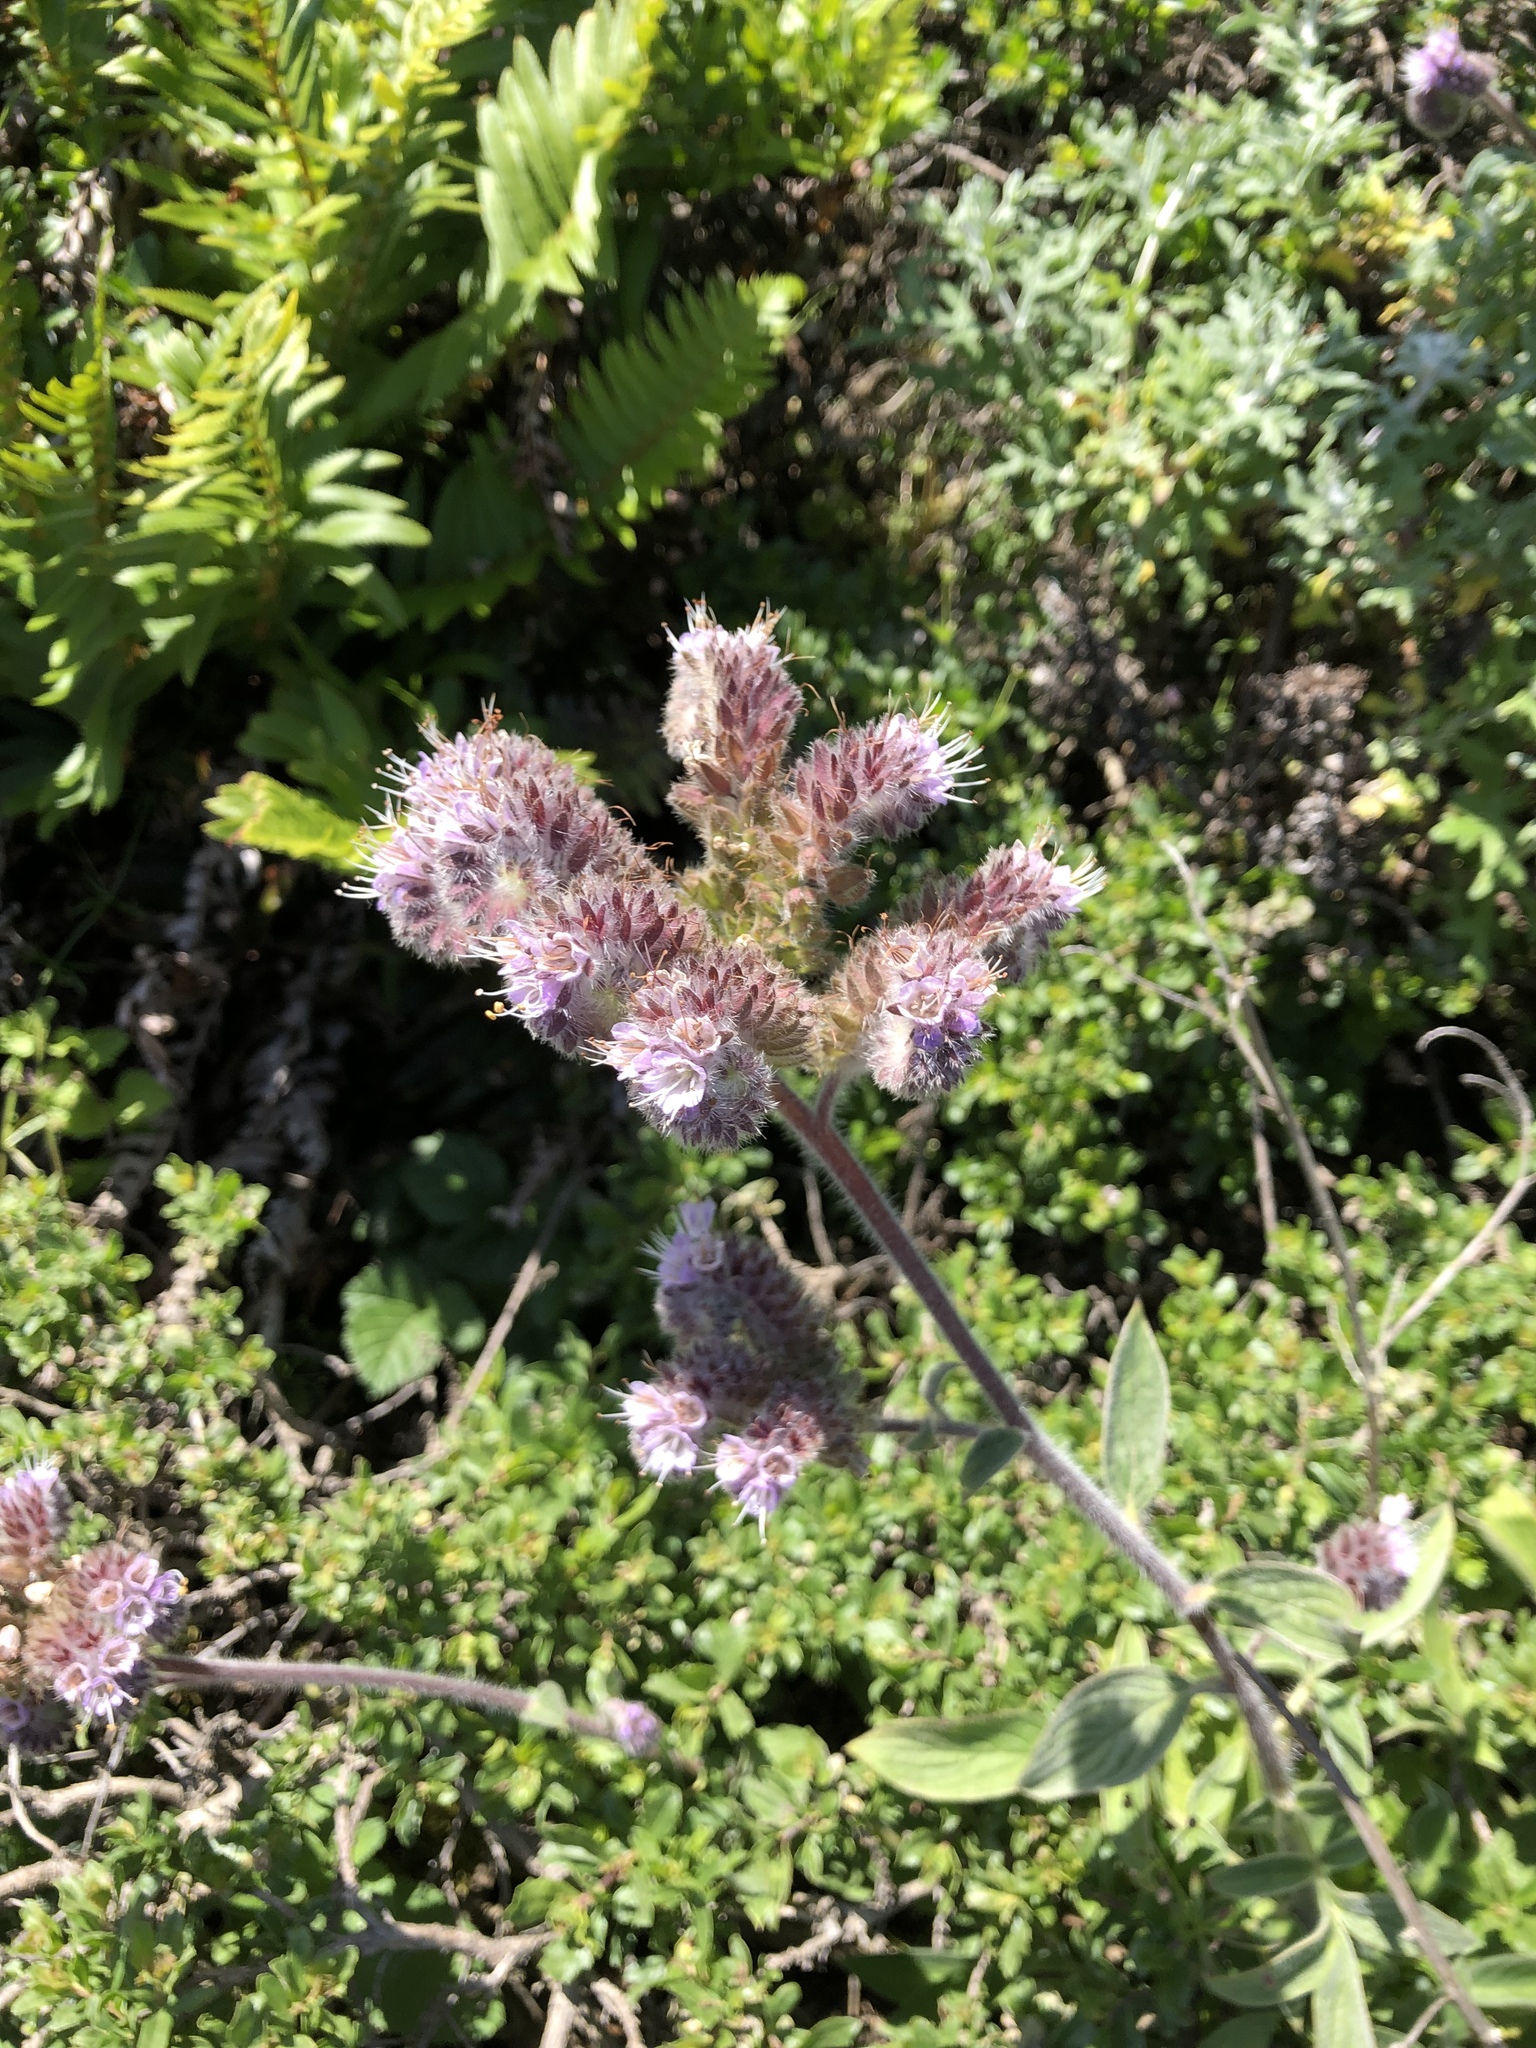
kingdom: Plantae
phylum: Tracheophyta
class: Magnoliopsida
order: Boraginales
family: Hydrophyllaceae
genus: Phacelia
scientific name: Phacelia californica
